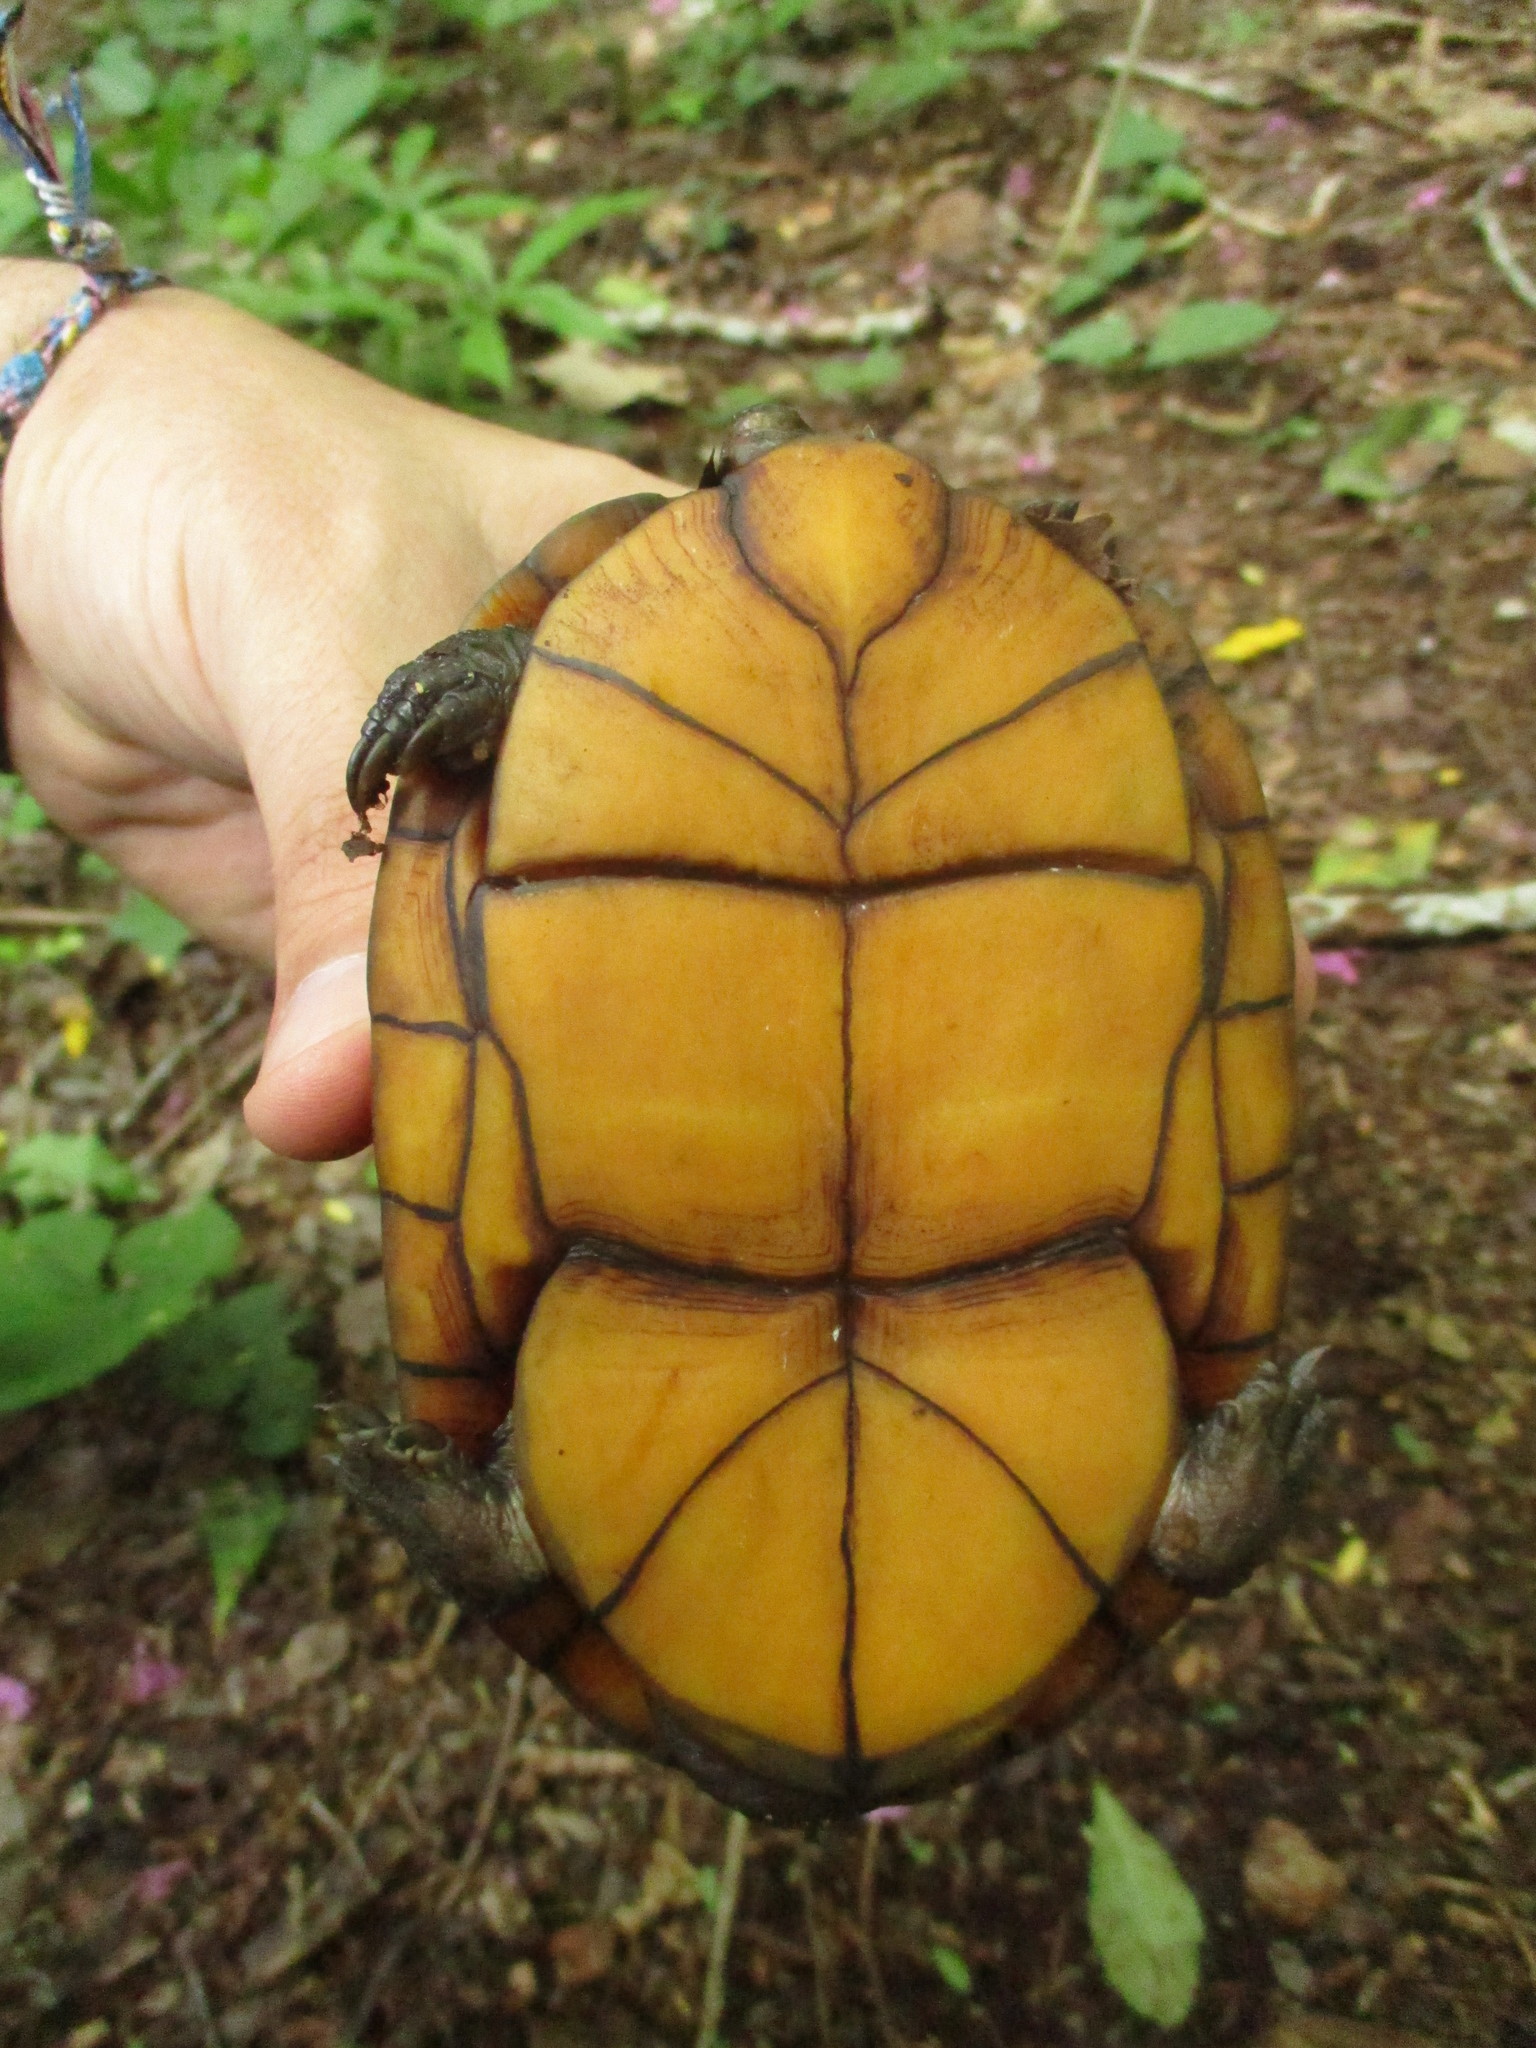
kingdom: Animalia
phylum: Chordata
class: Testudines
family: Kinosternidae
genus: Kinosternon
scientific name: Kinosternon creaseri
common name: Creaser's mud turtle
